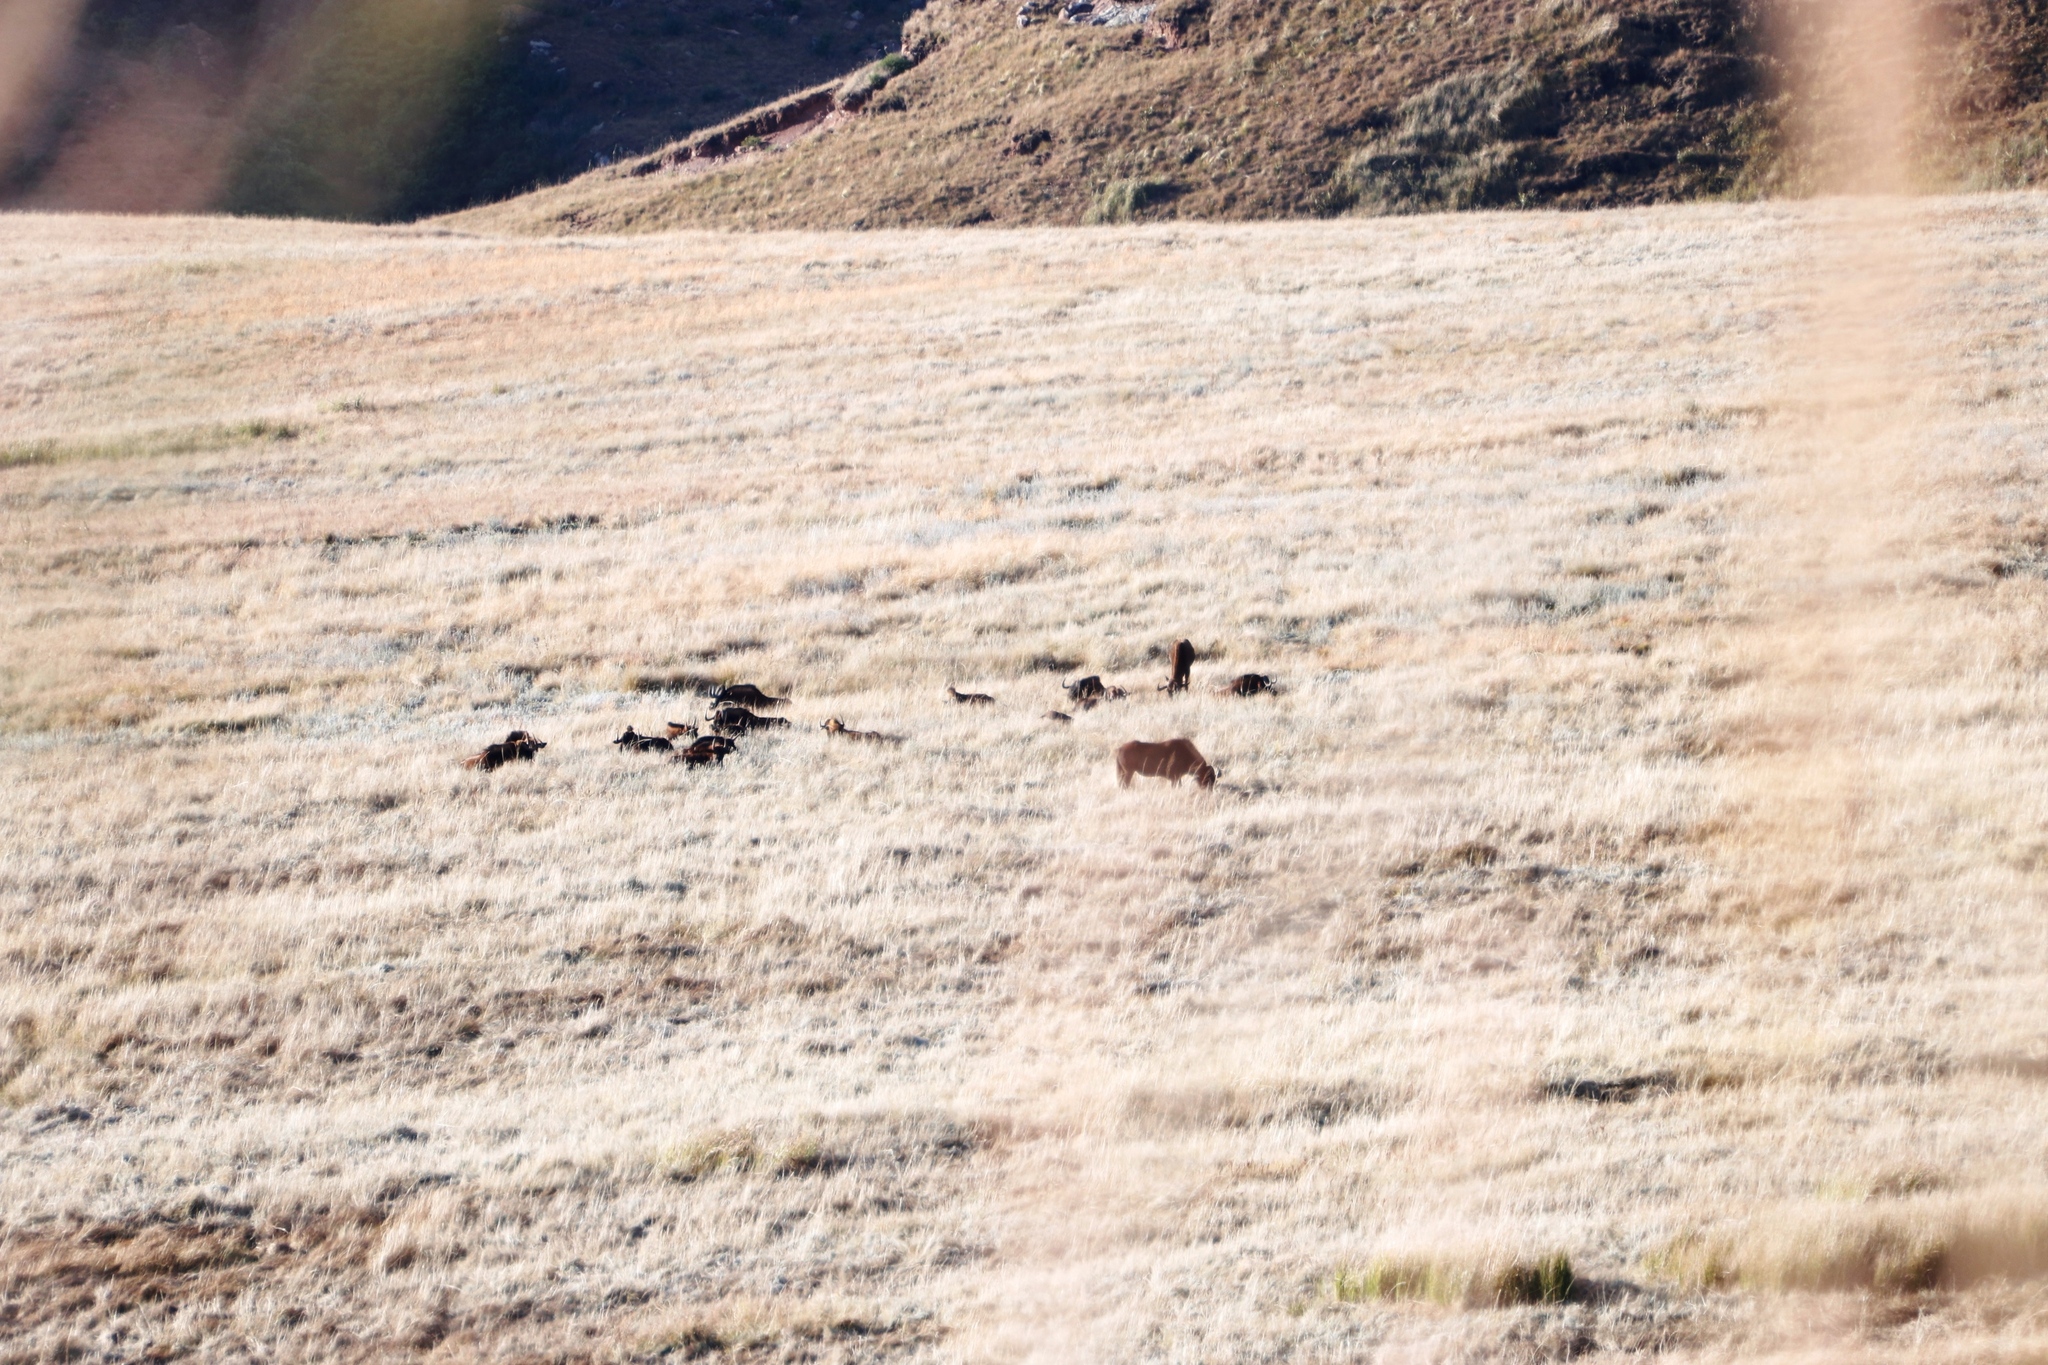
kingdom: Animalia
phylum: Chordata
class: Mammalia
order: Artiodactyla
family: Bovidae
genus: Connochaetes
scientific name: Connochaetes gnou
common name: Black wildebeest
